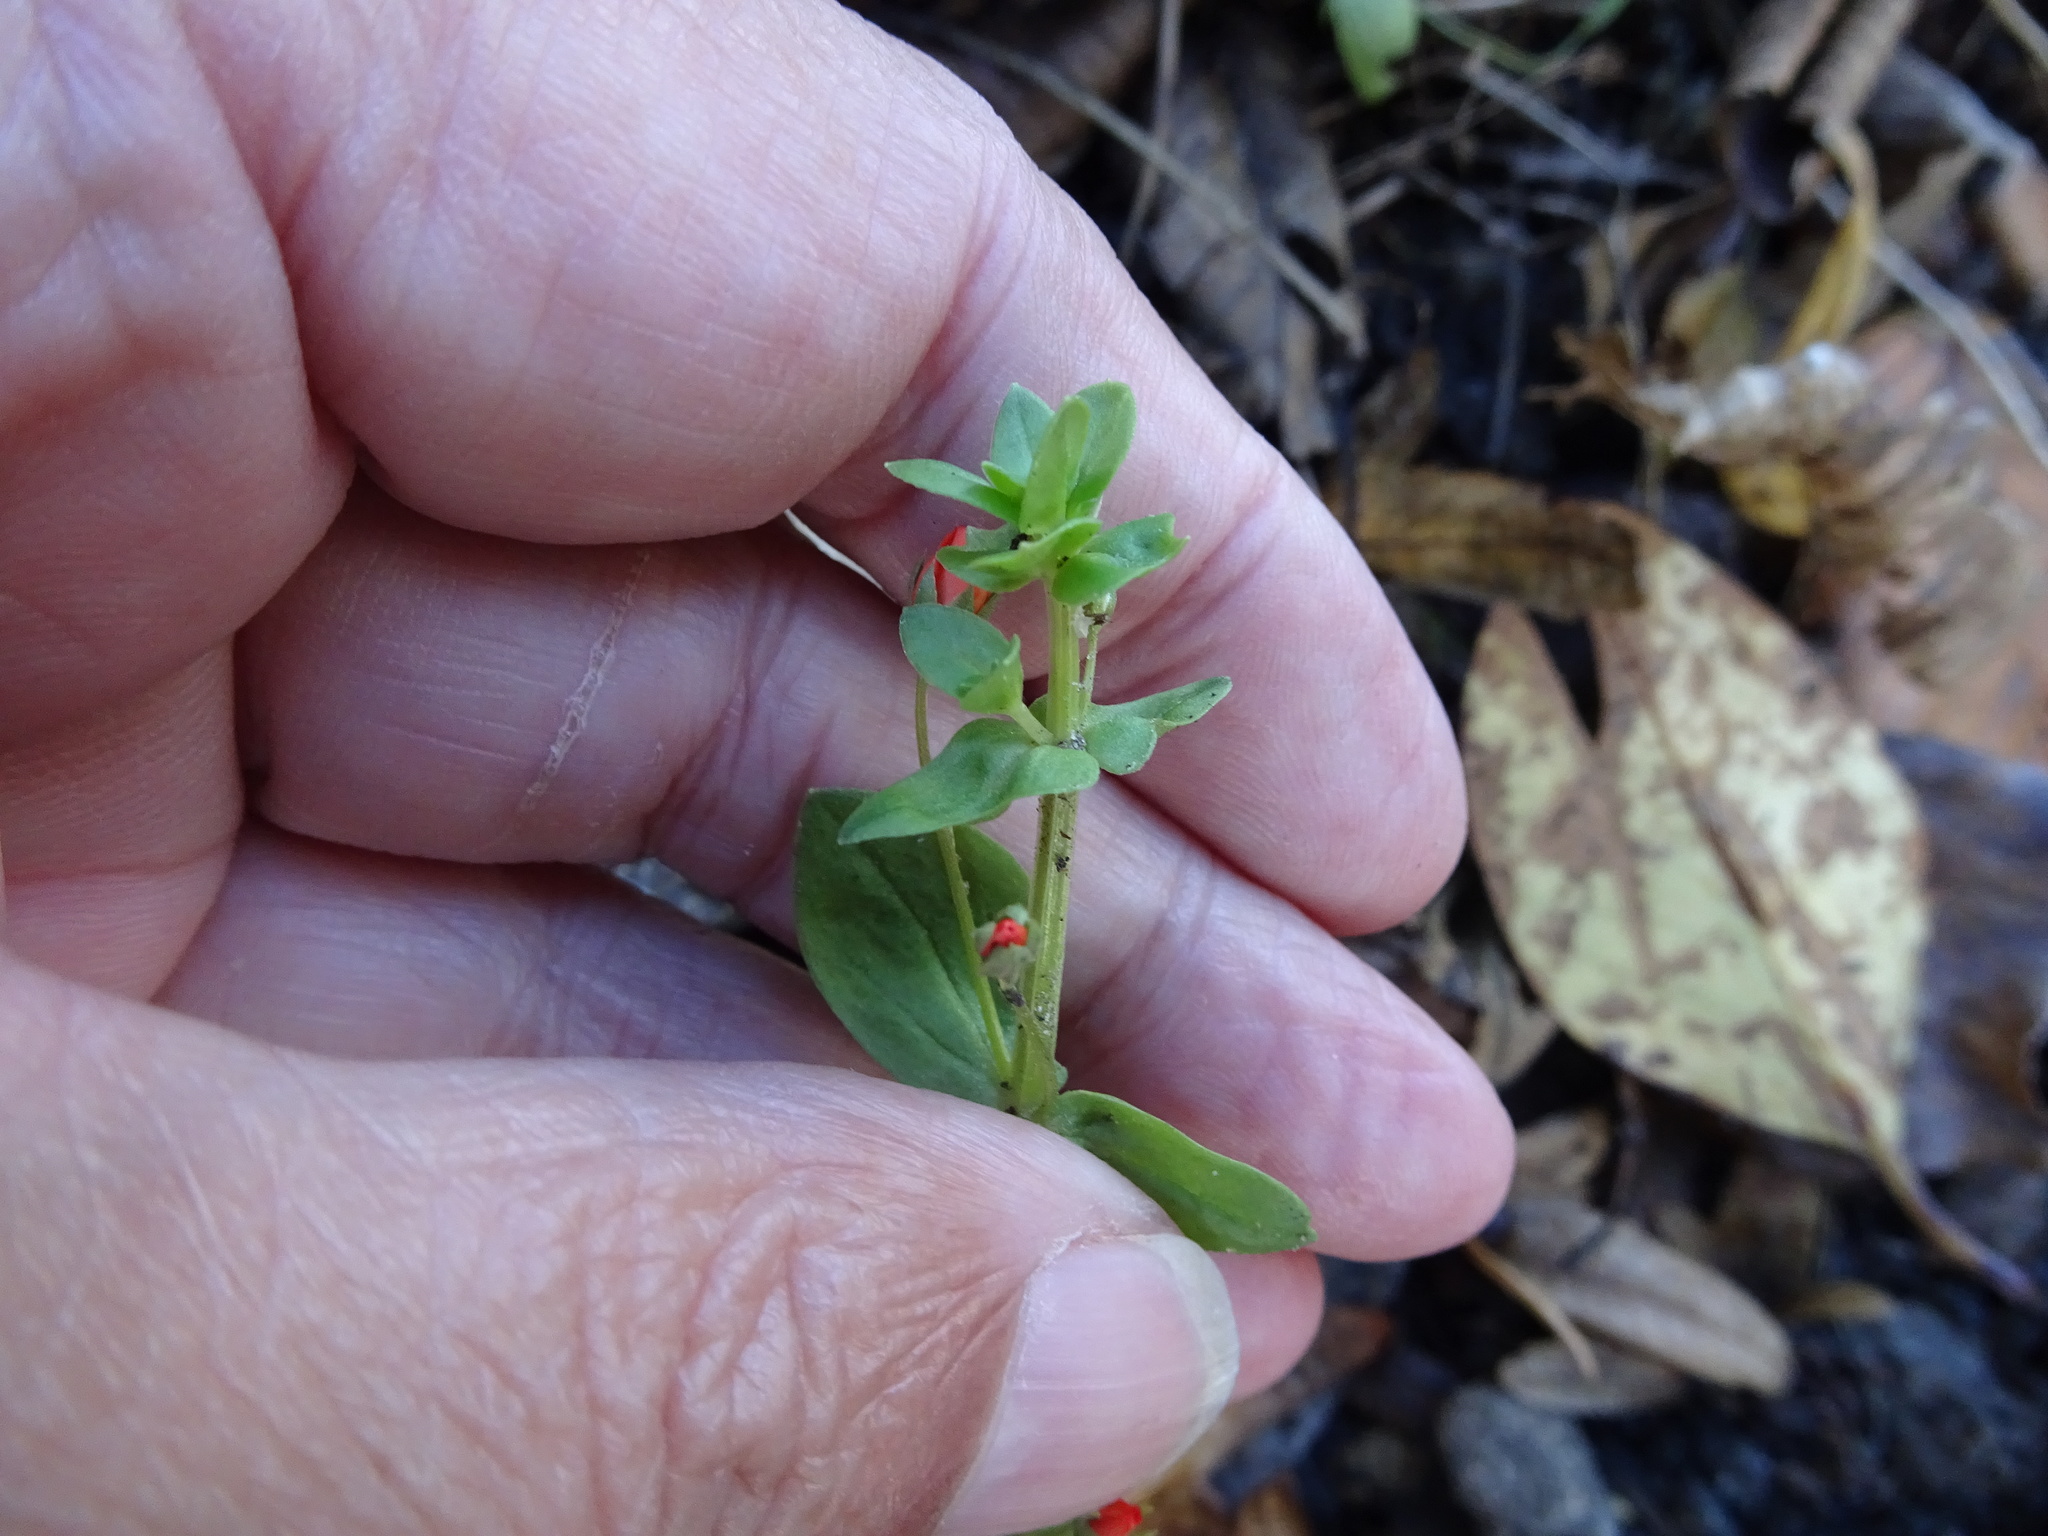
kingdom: Plantae
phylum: Tracheophyta
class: Magnoliopsida
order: Ericales
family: Primulaceae
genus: Lysimachia
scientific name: Lysimachia arvensis
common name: Scarlet pimpernel
